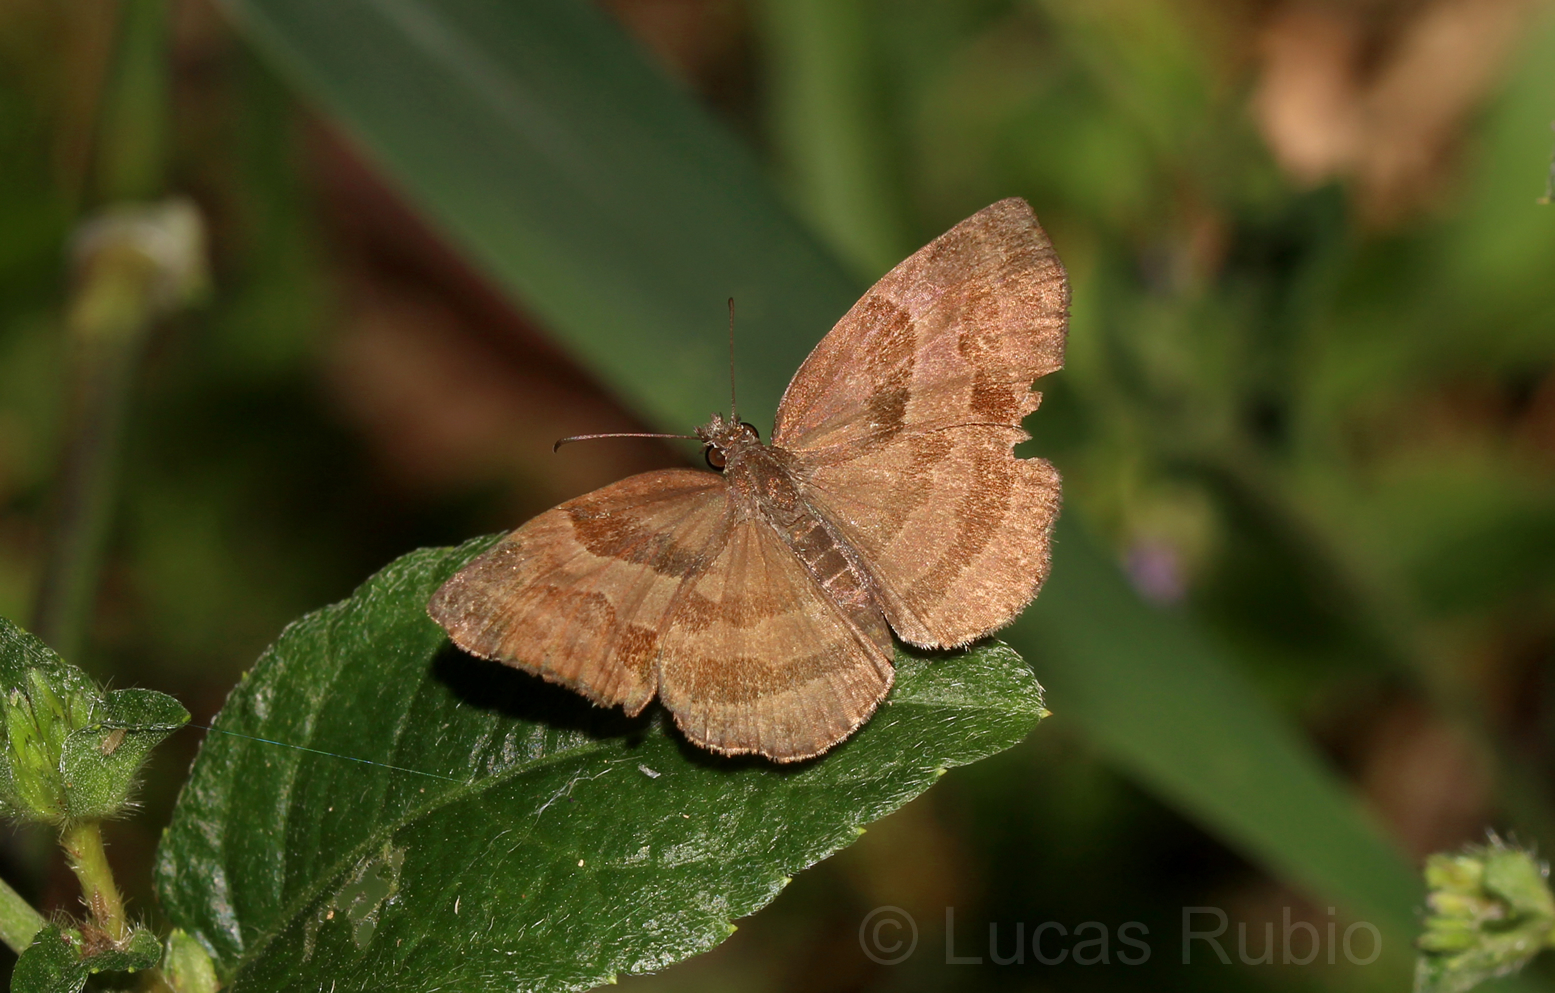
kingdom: Animalia
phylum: Arthropoda
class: Insecta
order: Lepidoptera
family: Hesperiidae
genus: Trina
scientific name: Trina geometrina
